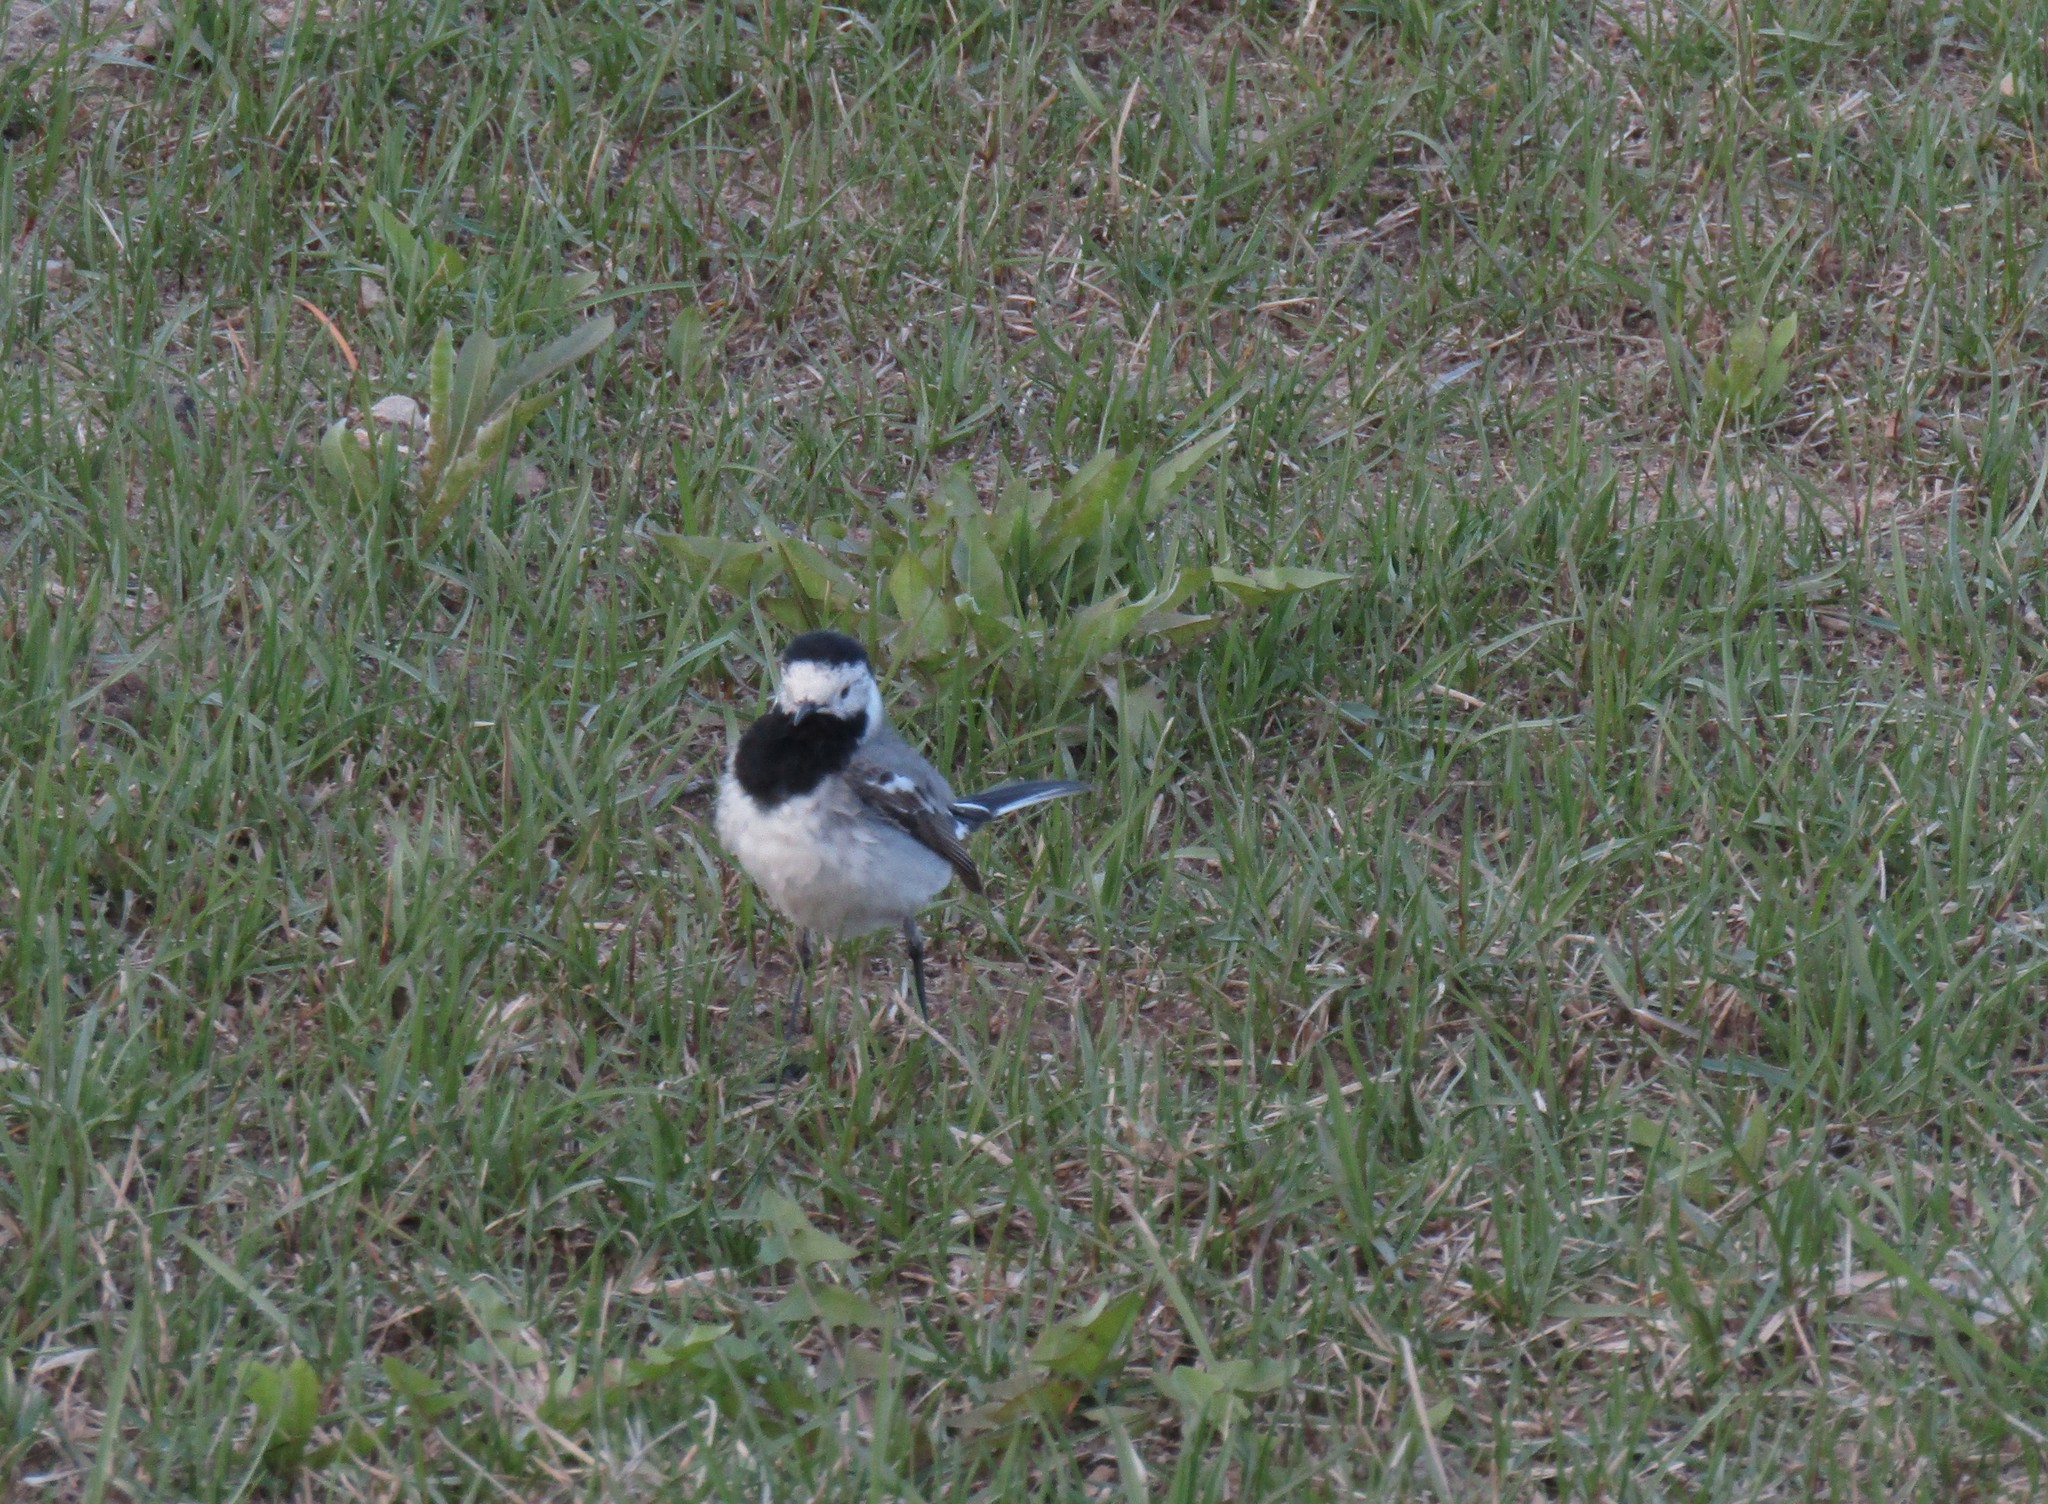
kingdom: Animalia
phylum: Chordata
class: Aves
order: Passeriformes
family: Motacillidae
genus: Motacilla
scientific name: Motacilla alba
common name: White wagtail
